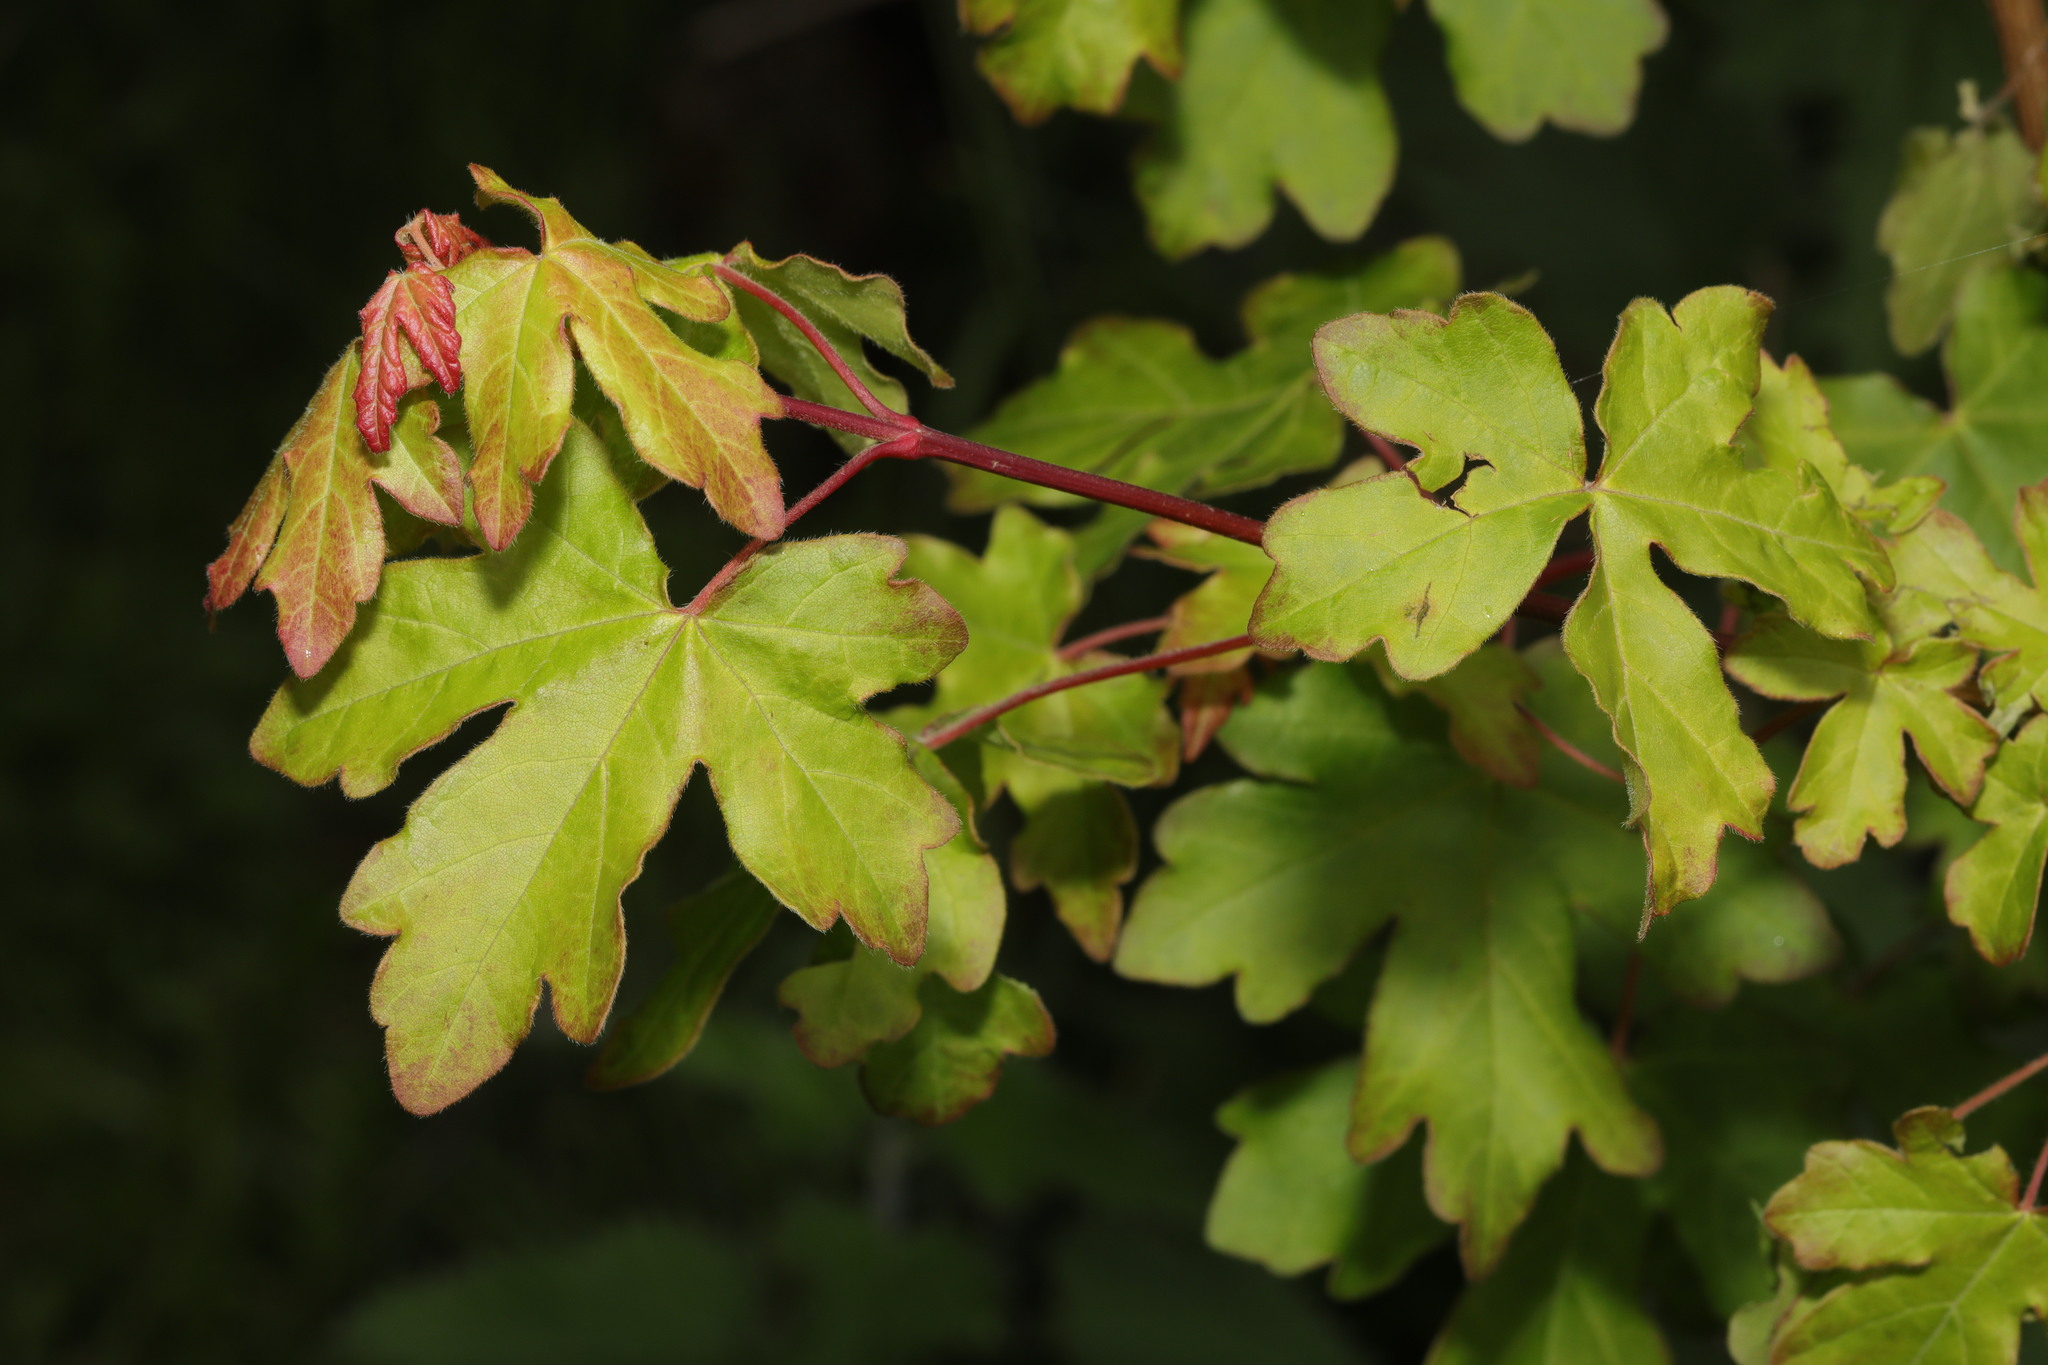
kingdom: Plantae
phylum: Tracheophyta
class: Magnoliopsida
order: Sapindales
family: Sapindaceae
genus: Acer
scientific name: Acer campestre
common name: Field maple
